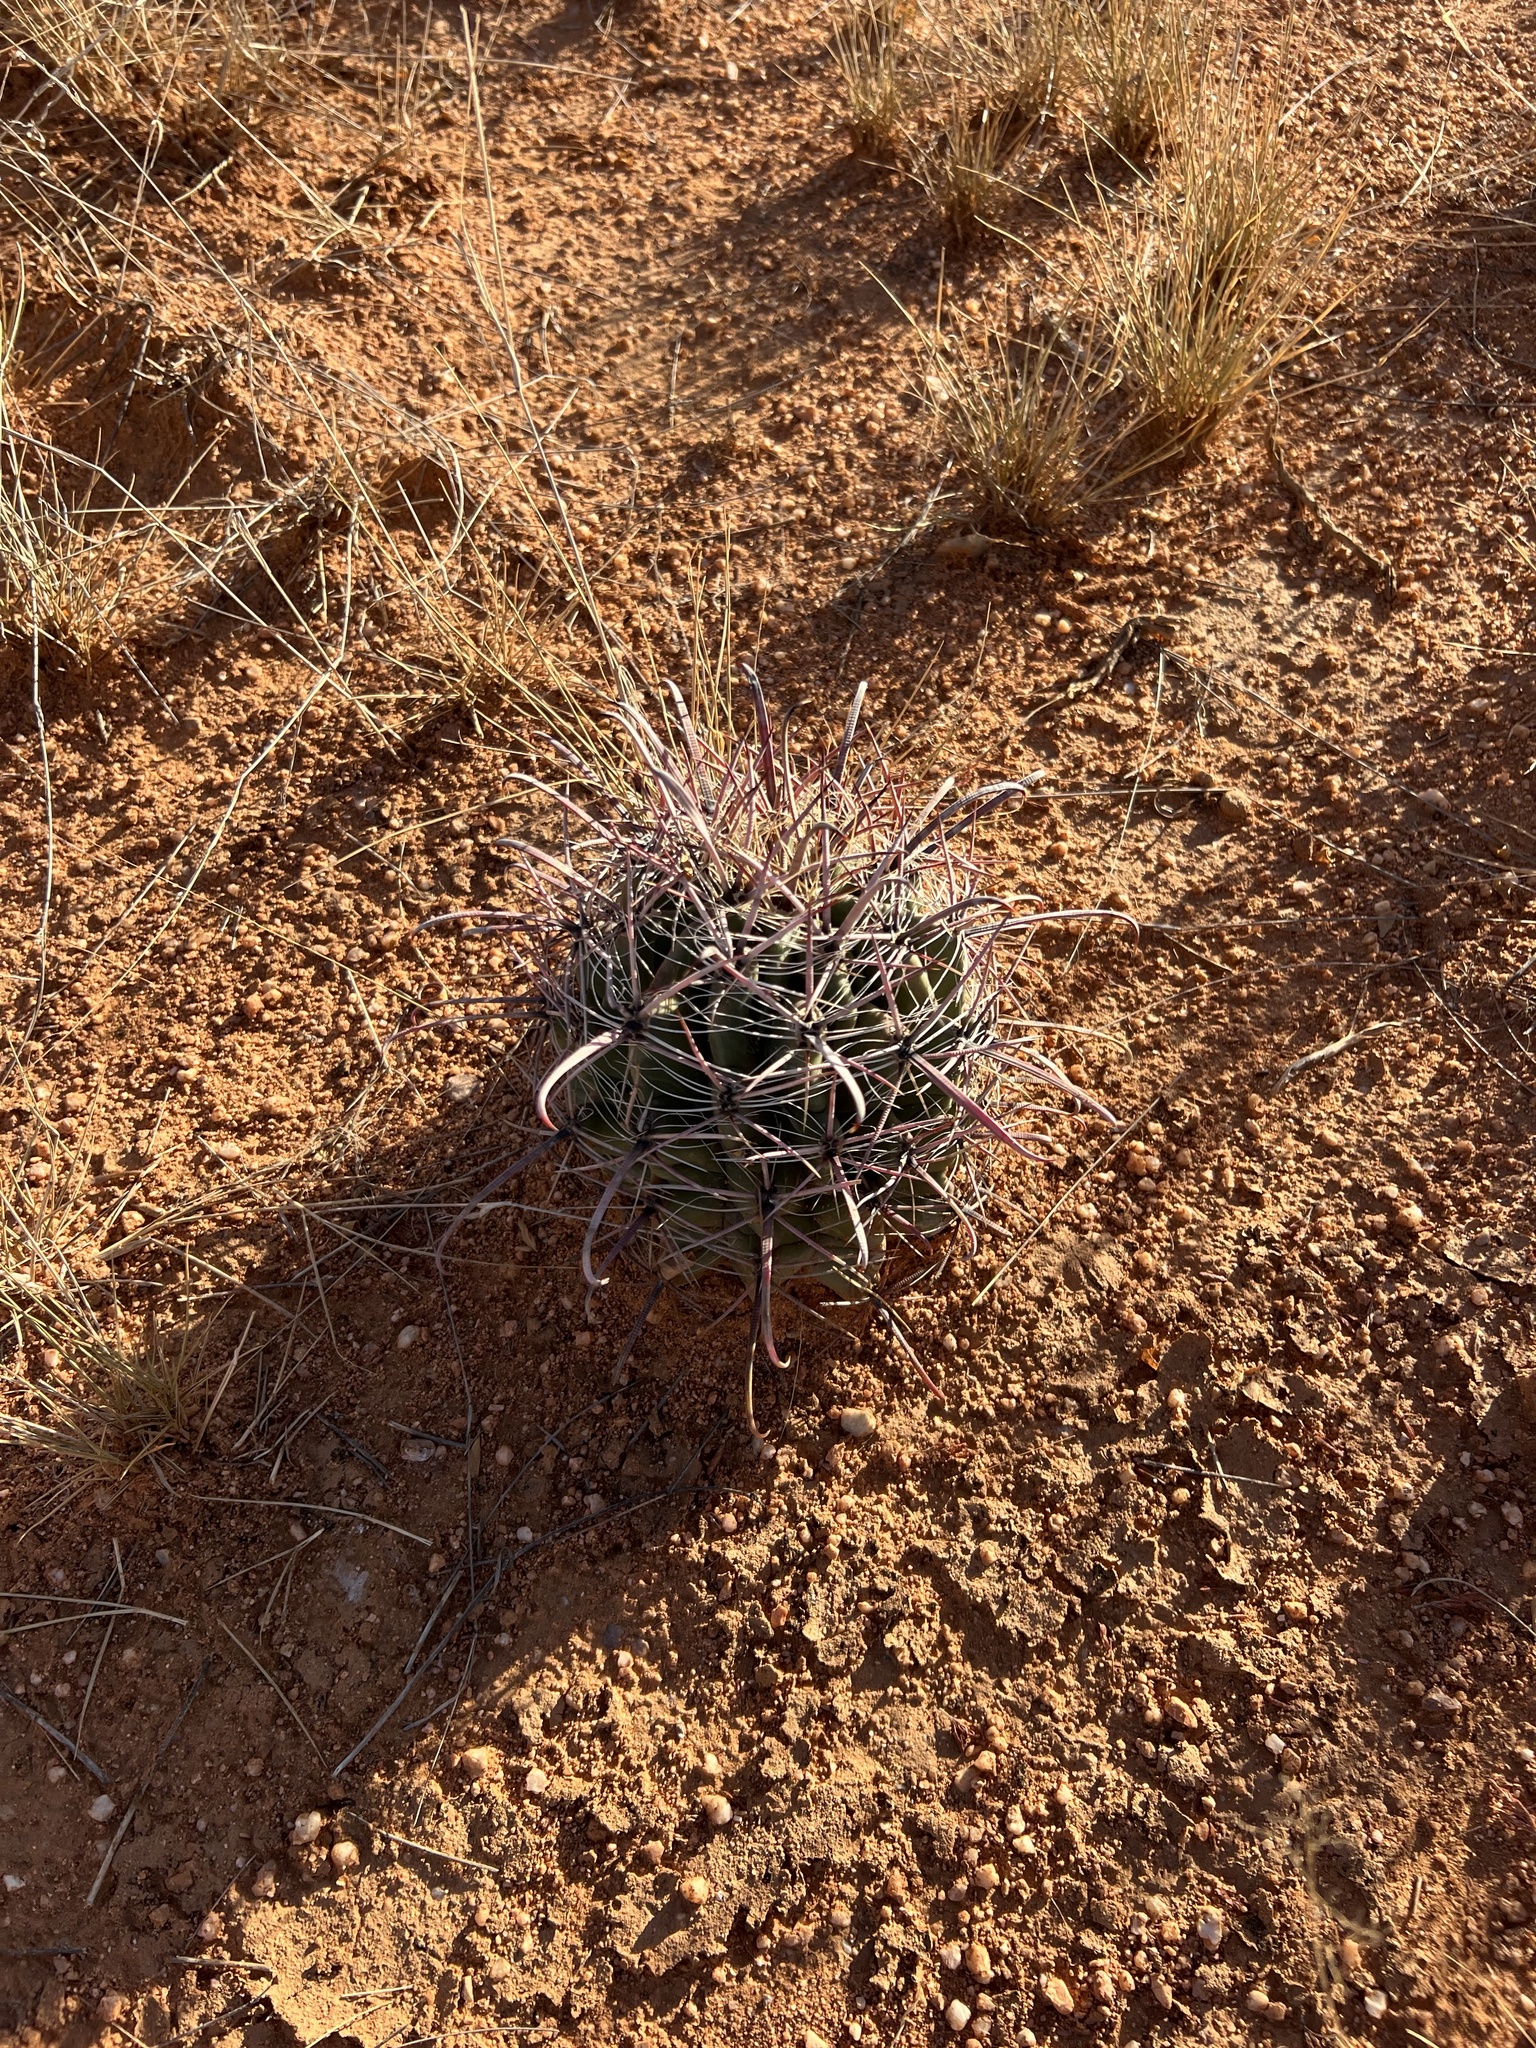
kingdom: Plantae
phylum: Tracheophyta
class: Magnoliopsida
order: Caryophyllales
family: Cactaceae
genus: Ferocactus
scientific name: Ferocactus wislizeni
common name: Candy barrel cactus
